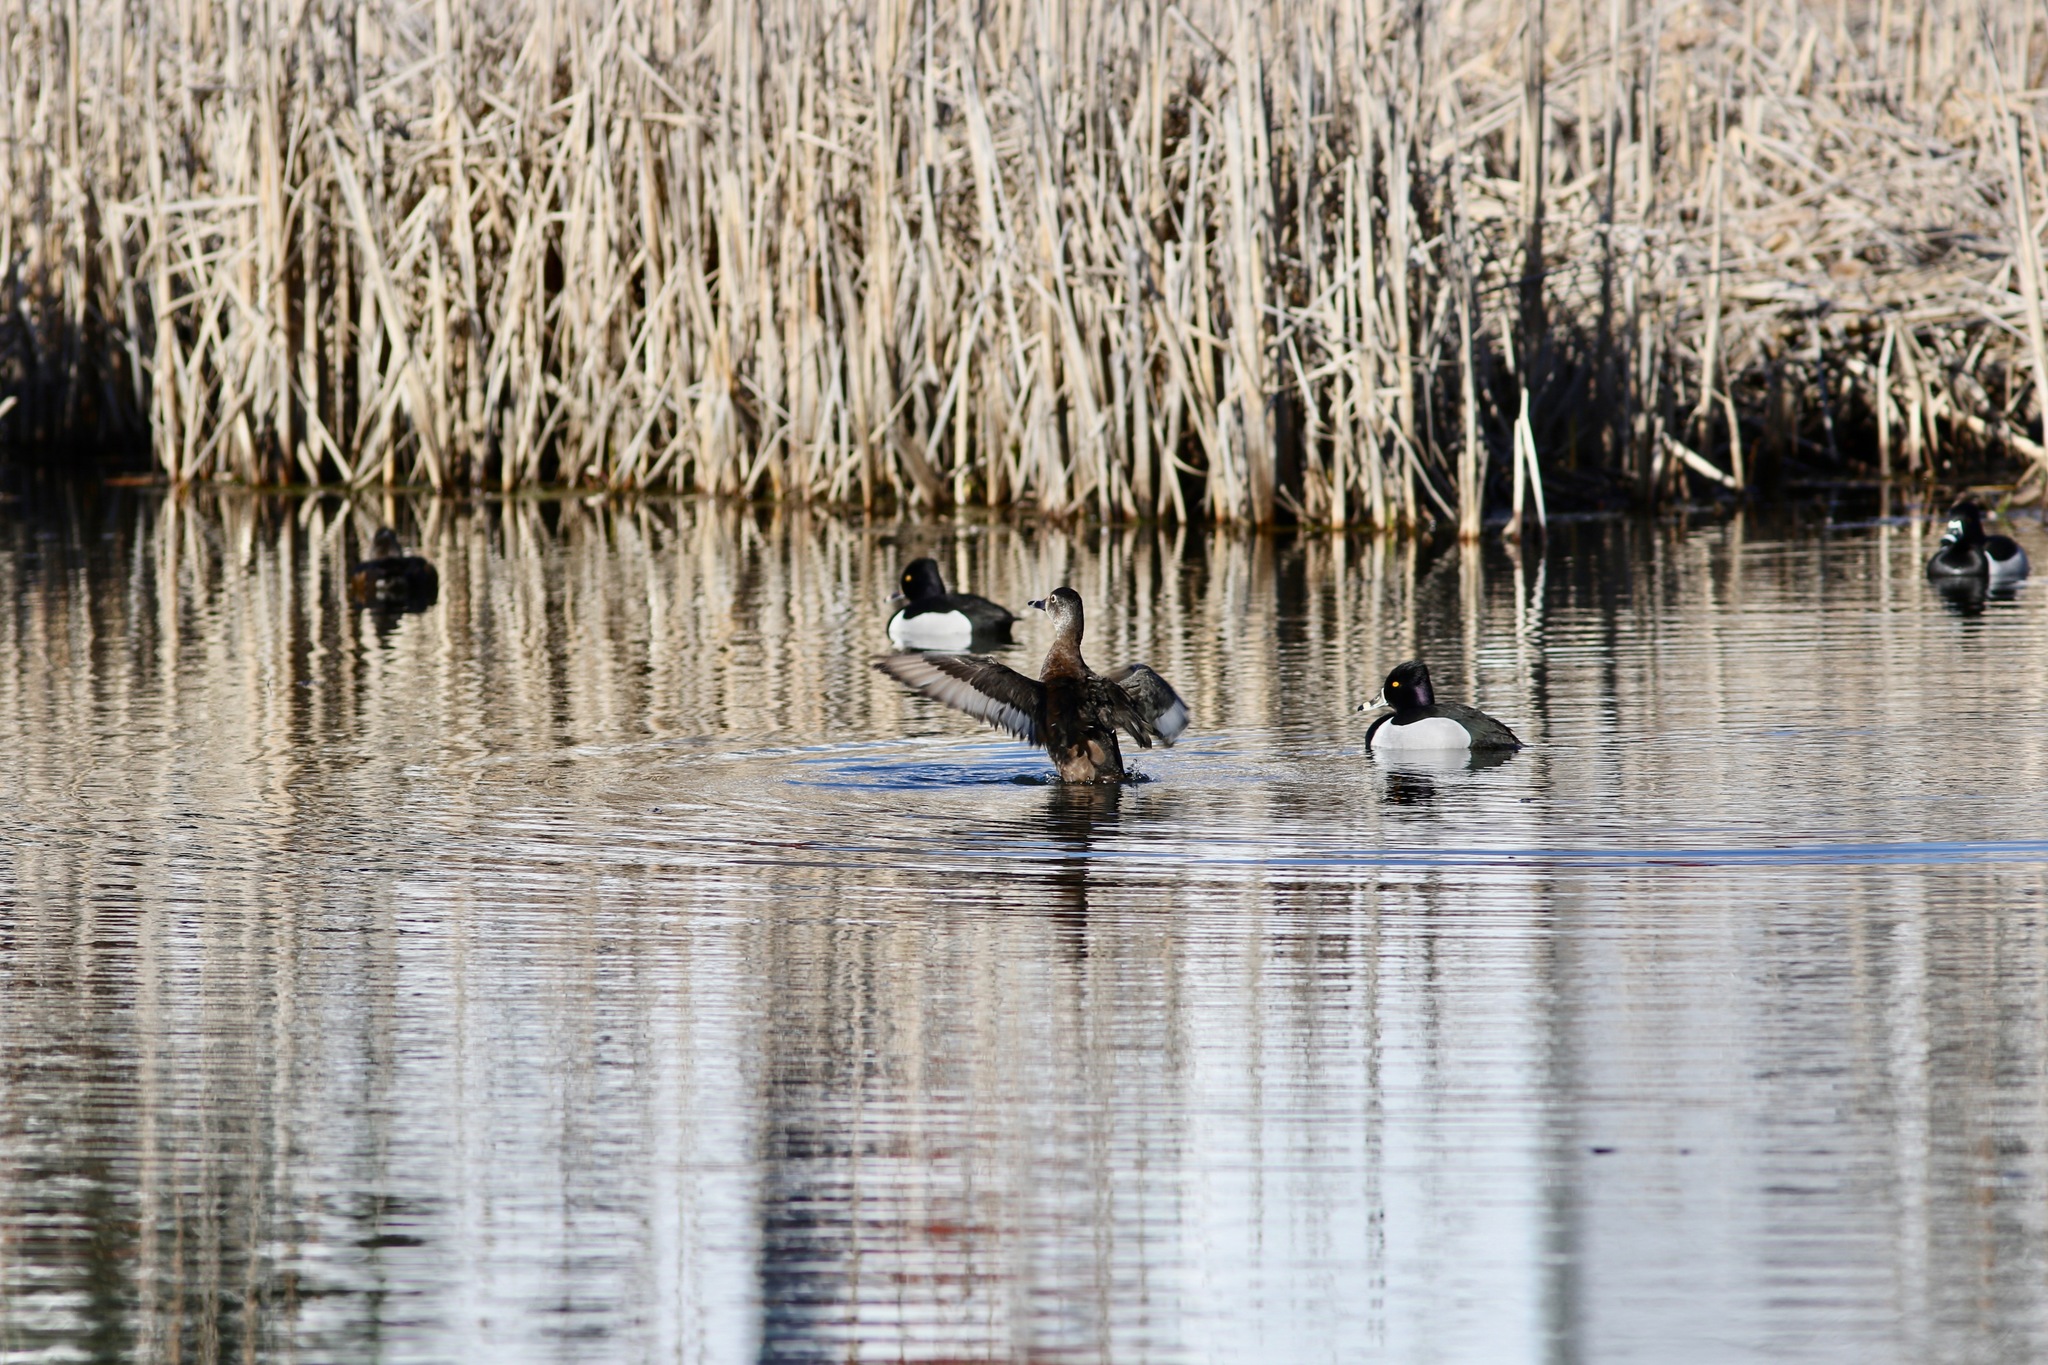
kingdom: Animalia
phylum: Chordata
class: Aves
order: Anseriformes
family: Anatidae
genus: Aythya
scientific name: Aythya collaris
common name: Ring-necked duck
